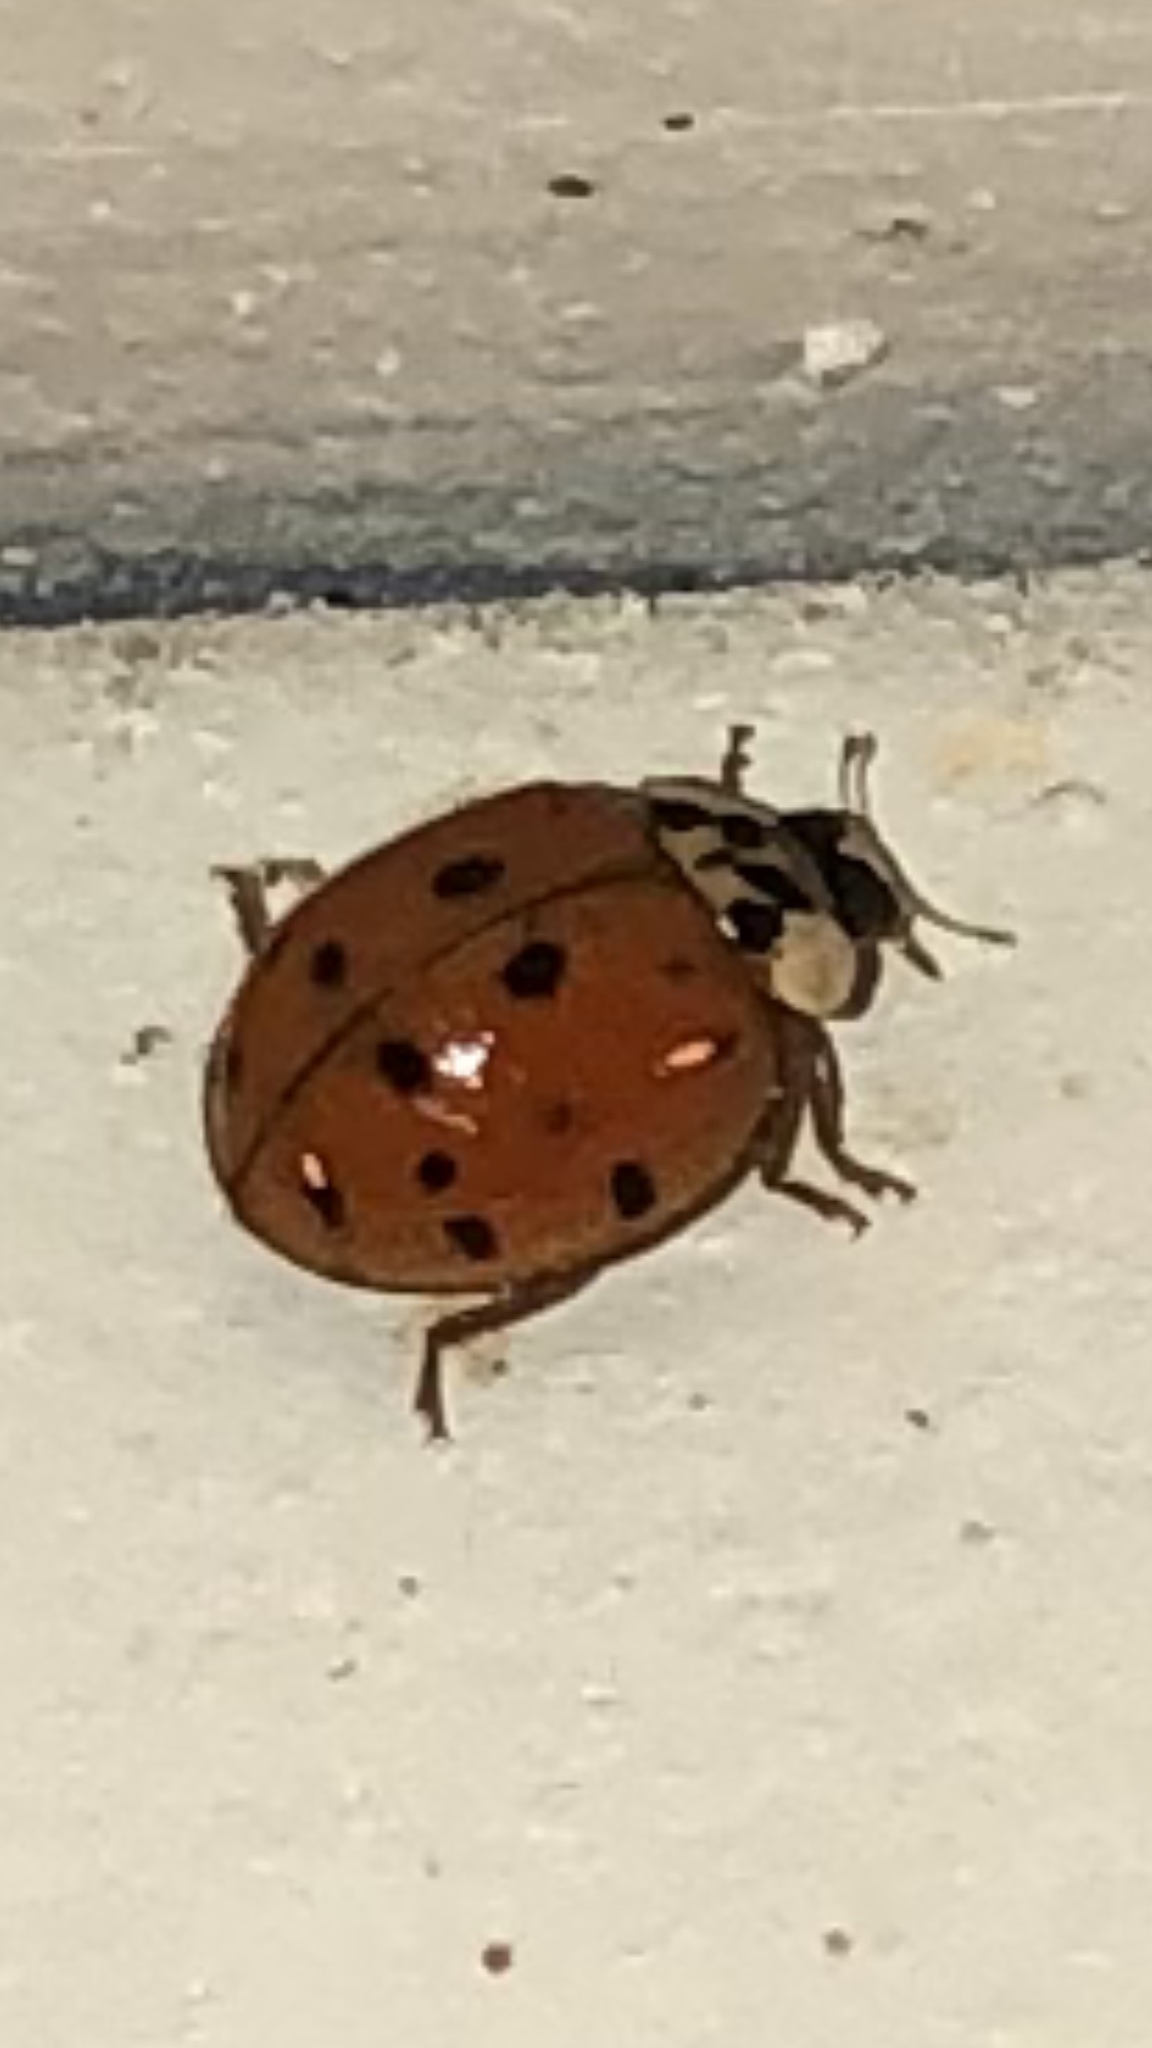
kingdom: Animalia
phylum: Arthropoda
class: Insecta
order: Coleoptera
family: Coccinellidae
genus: Harmonia
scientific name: Harmonia axyridis
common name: Harlequin ladybird
